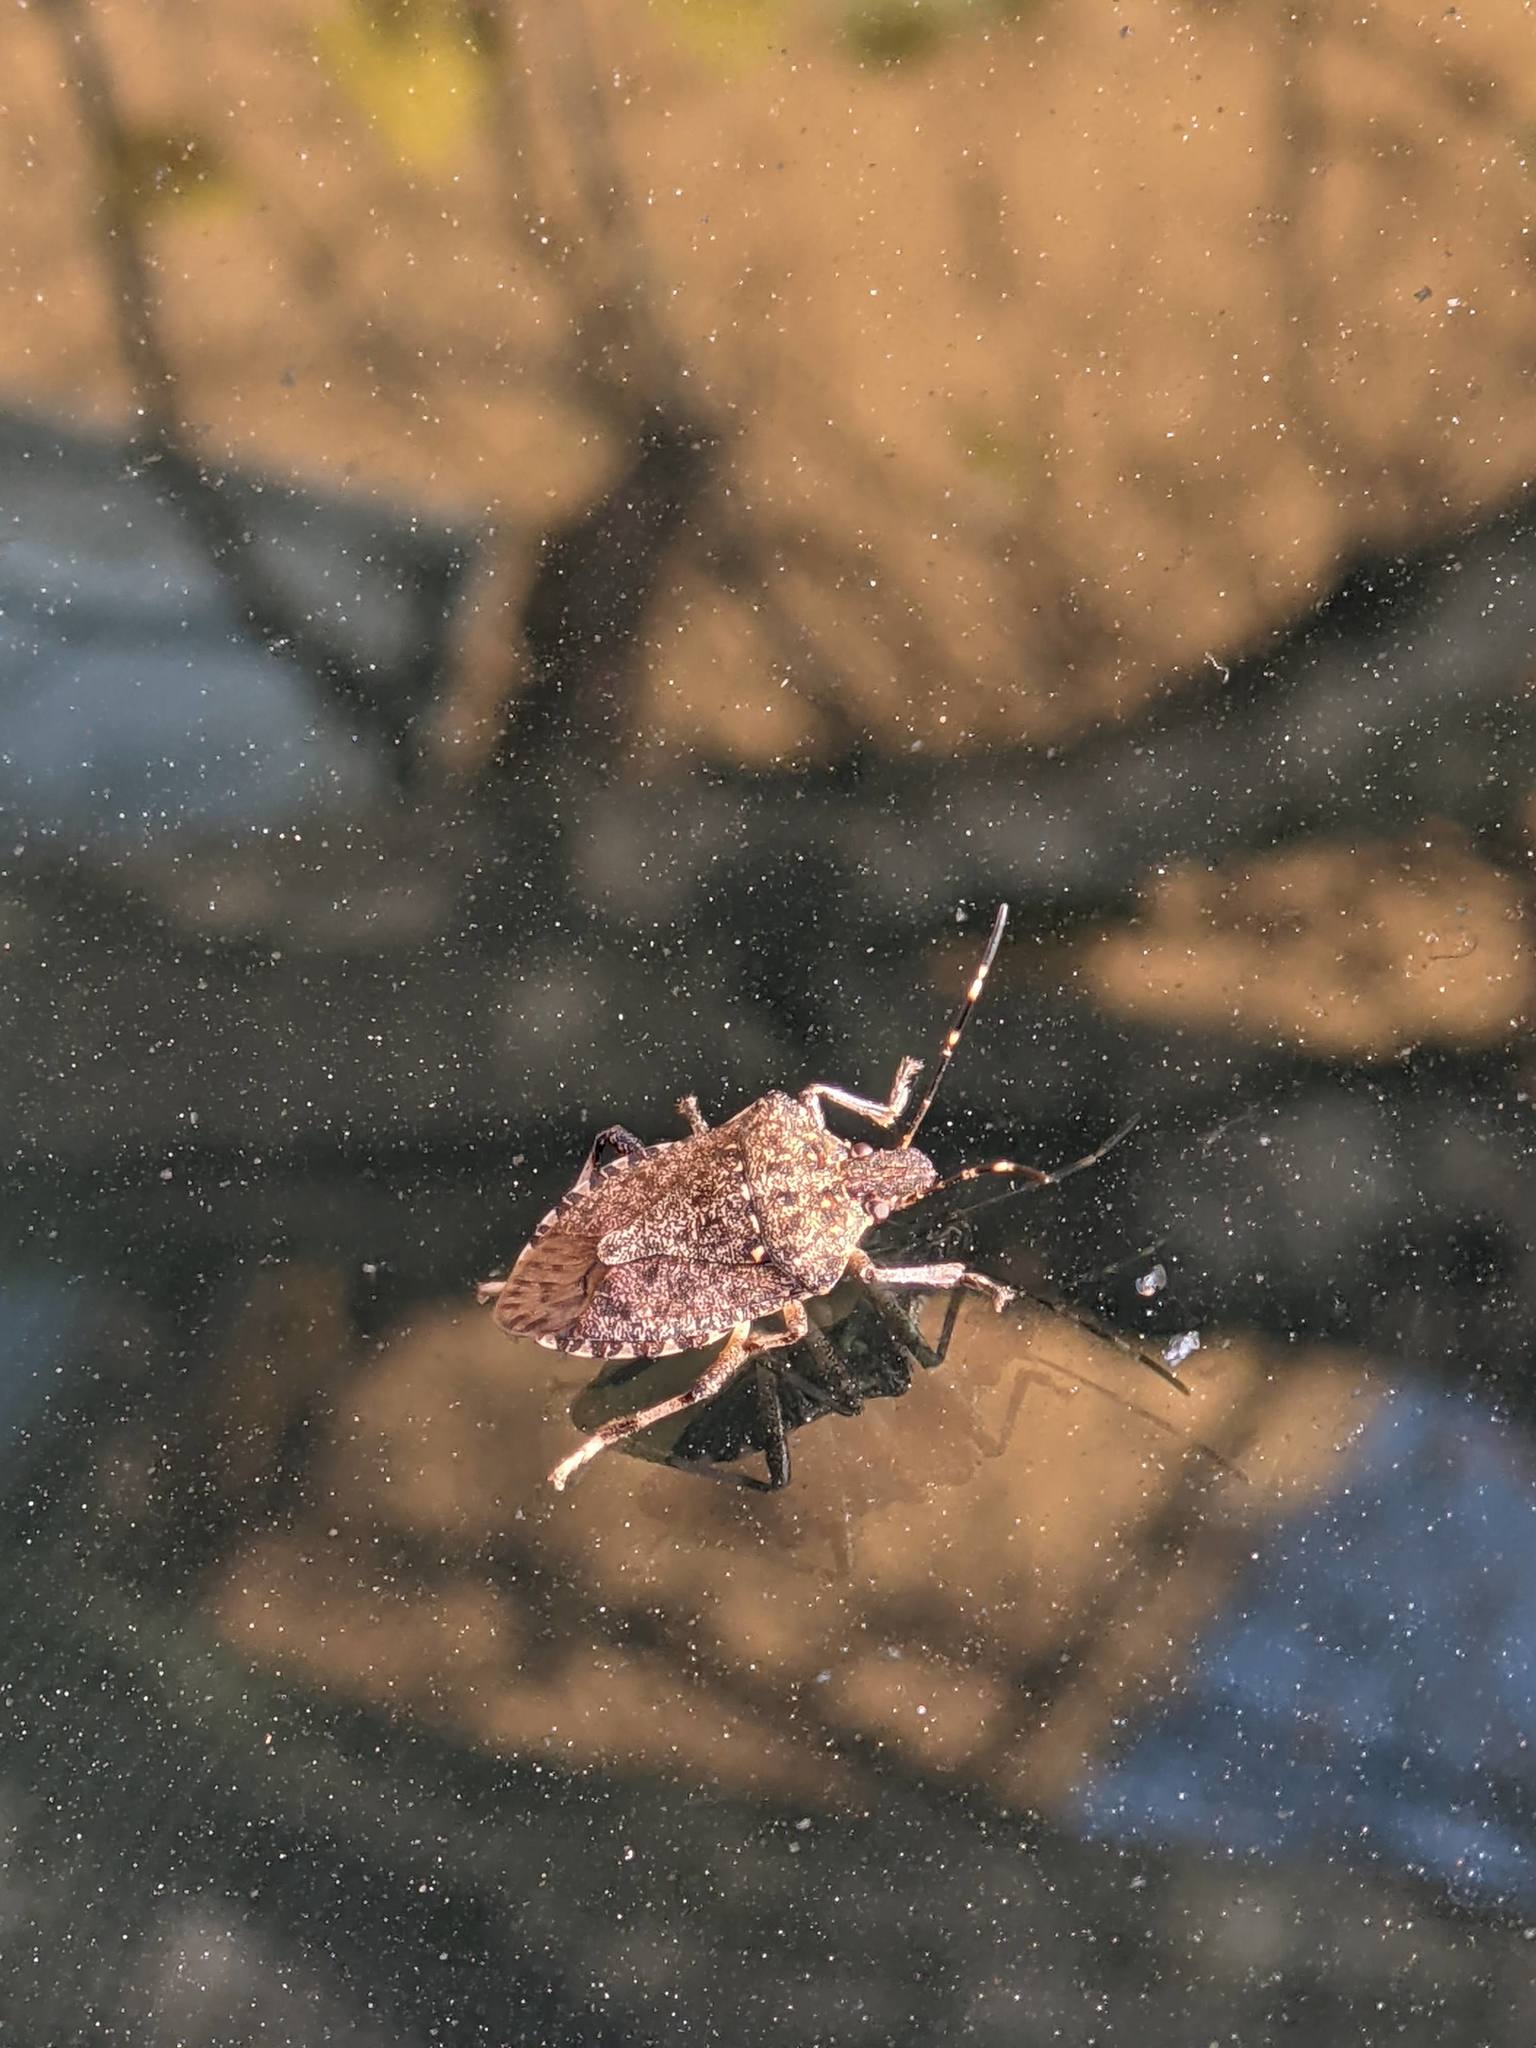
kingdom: Animalia
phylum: Arthropoda
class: Insecta
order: Hemiptera
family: Pentatomidae
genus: Halyomorpha
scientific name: Halyomorpha halys
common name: Brown marmorated stink bug
